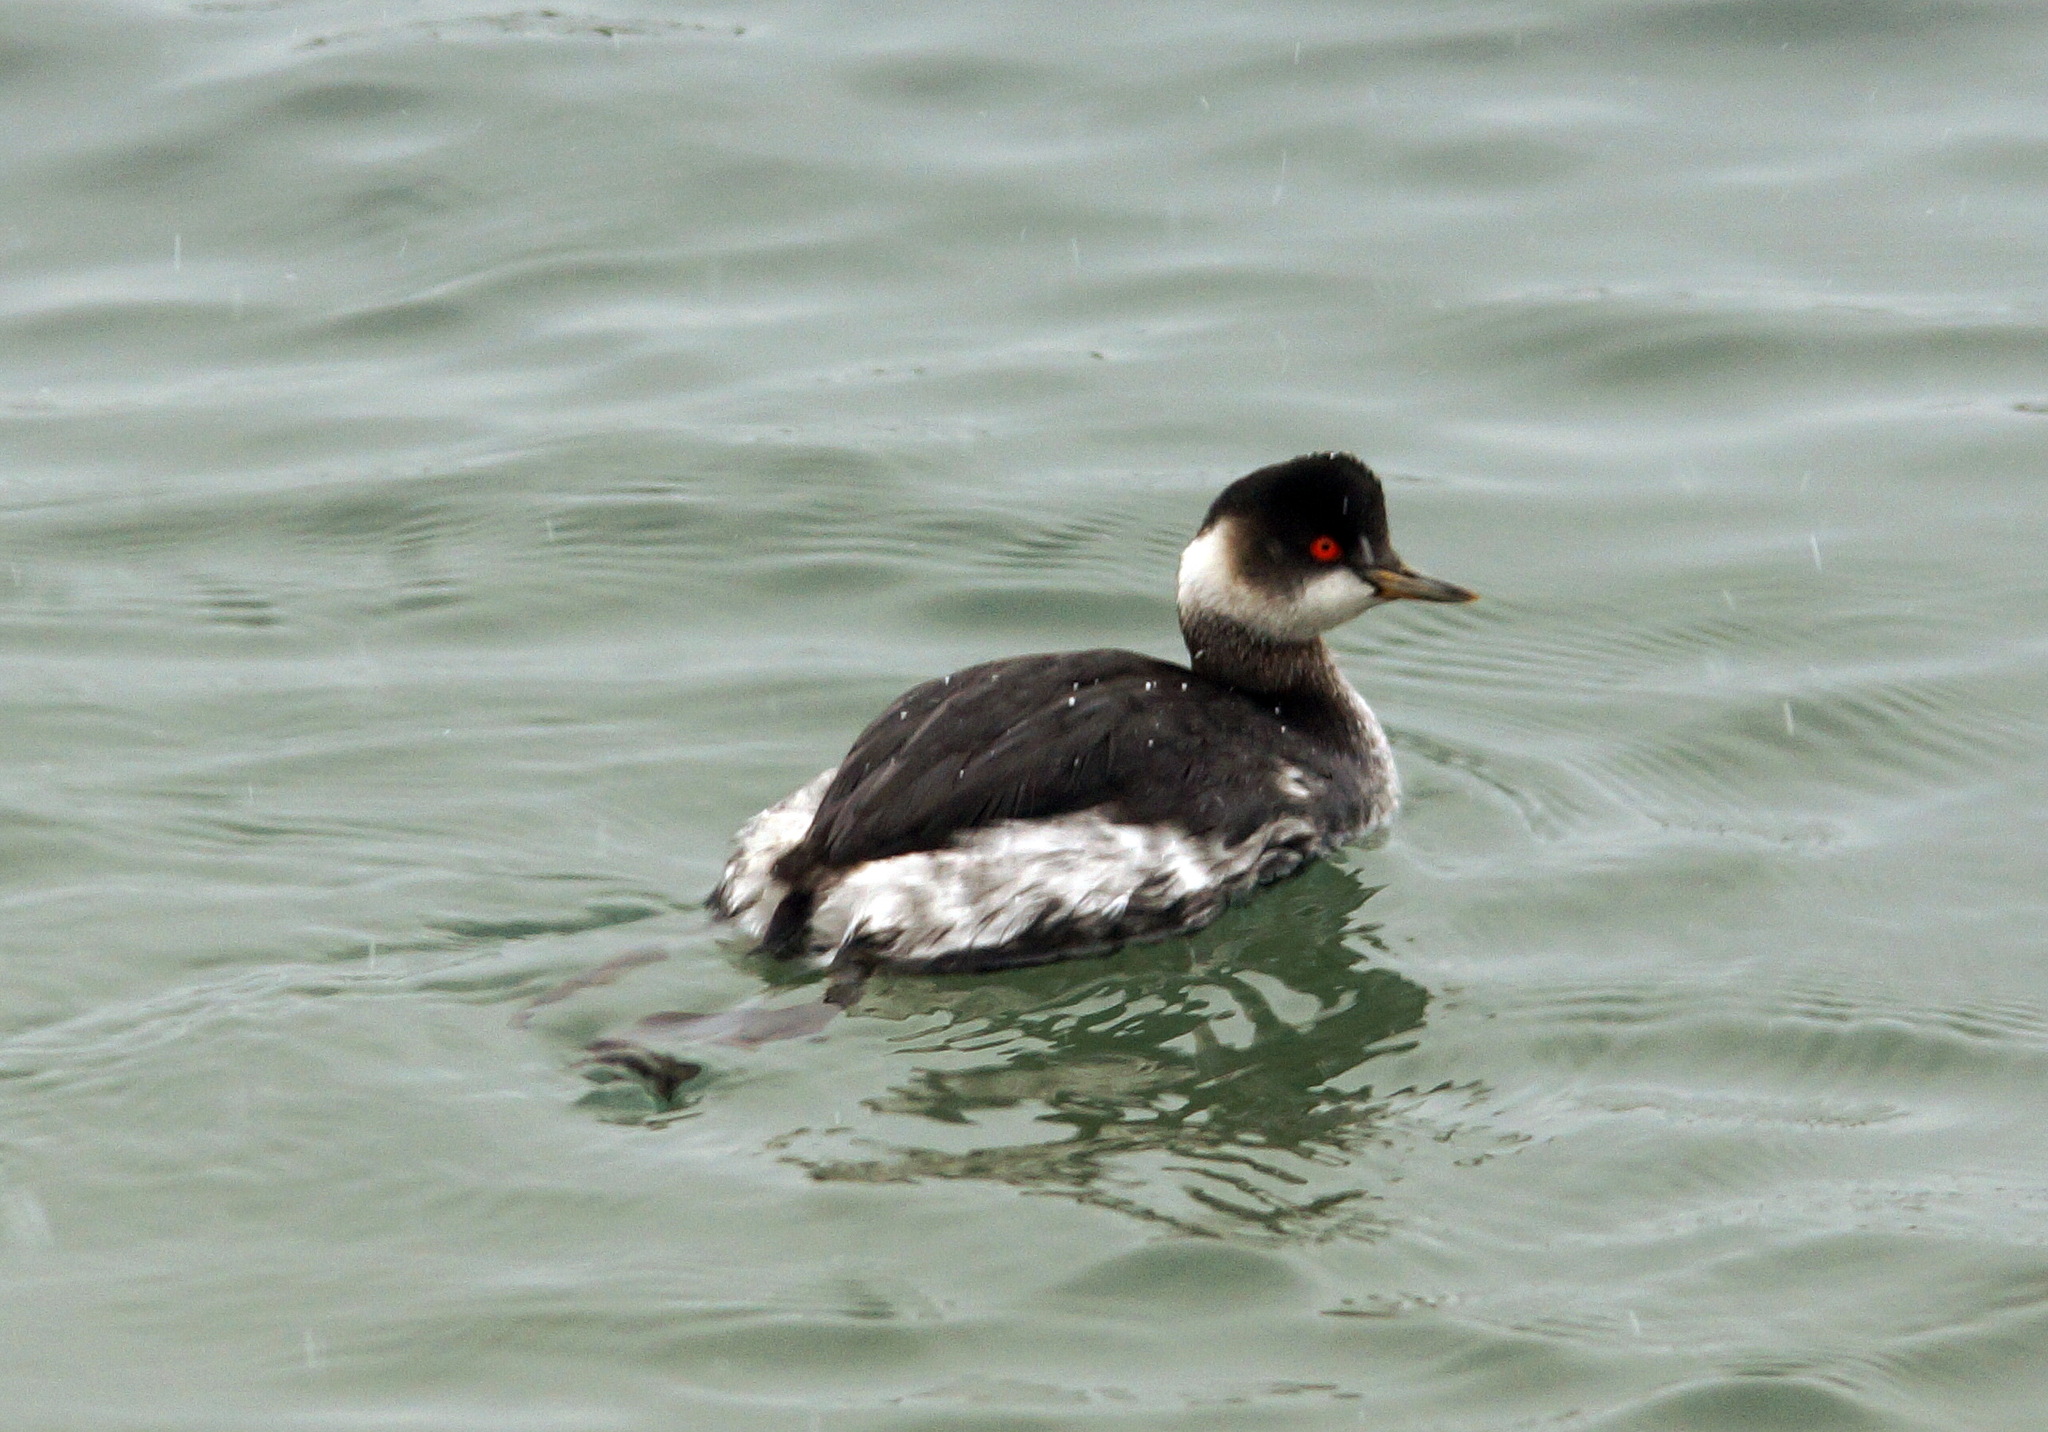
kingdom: Animalia
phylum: Chordata
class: Aves
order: Podicipediformes
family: Podicipedidae
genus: Podiceps
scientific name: Podiceps nigricollis
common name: Black-necked grebe
